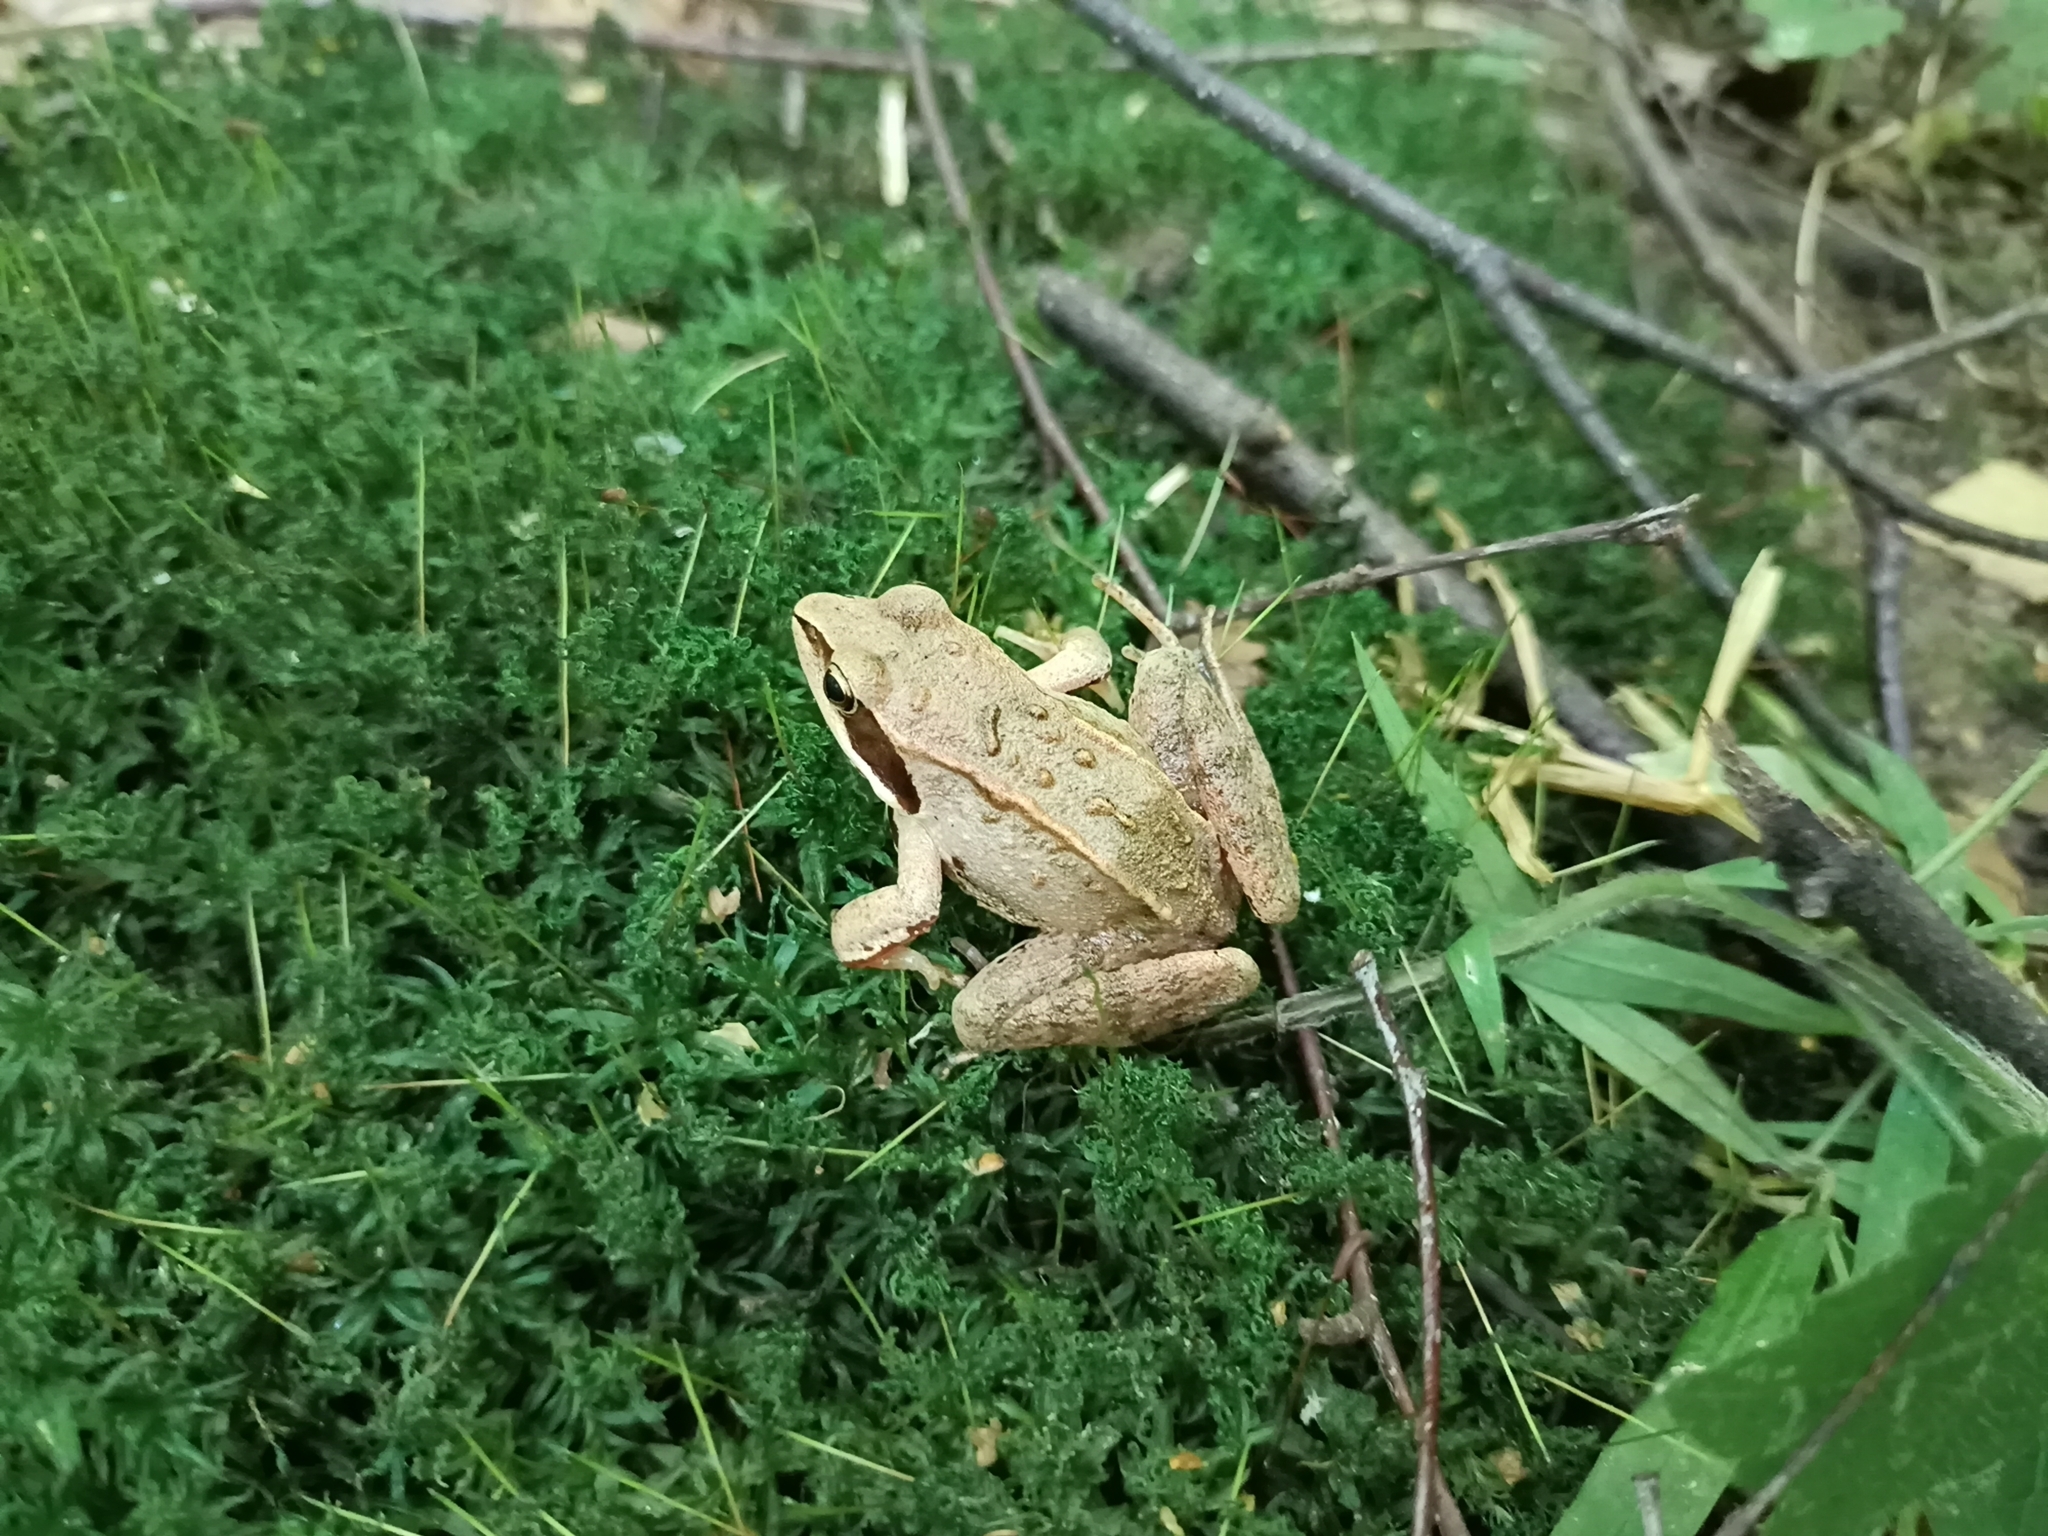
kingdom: Animalia
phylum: Chordata
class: Amphibia
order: Anura
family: Ranidae
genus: Rana
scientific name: Rana arvalis
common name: Moor frog
